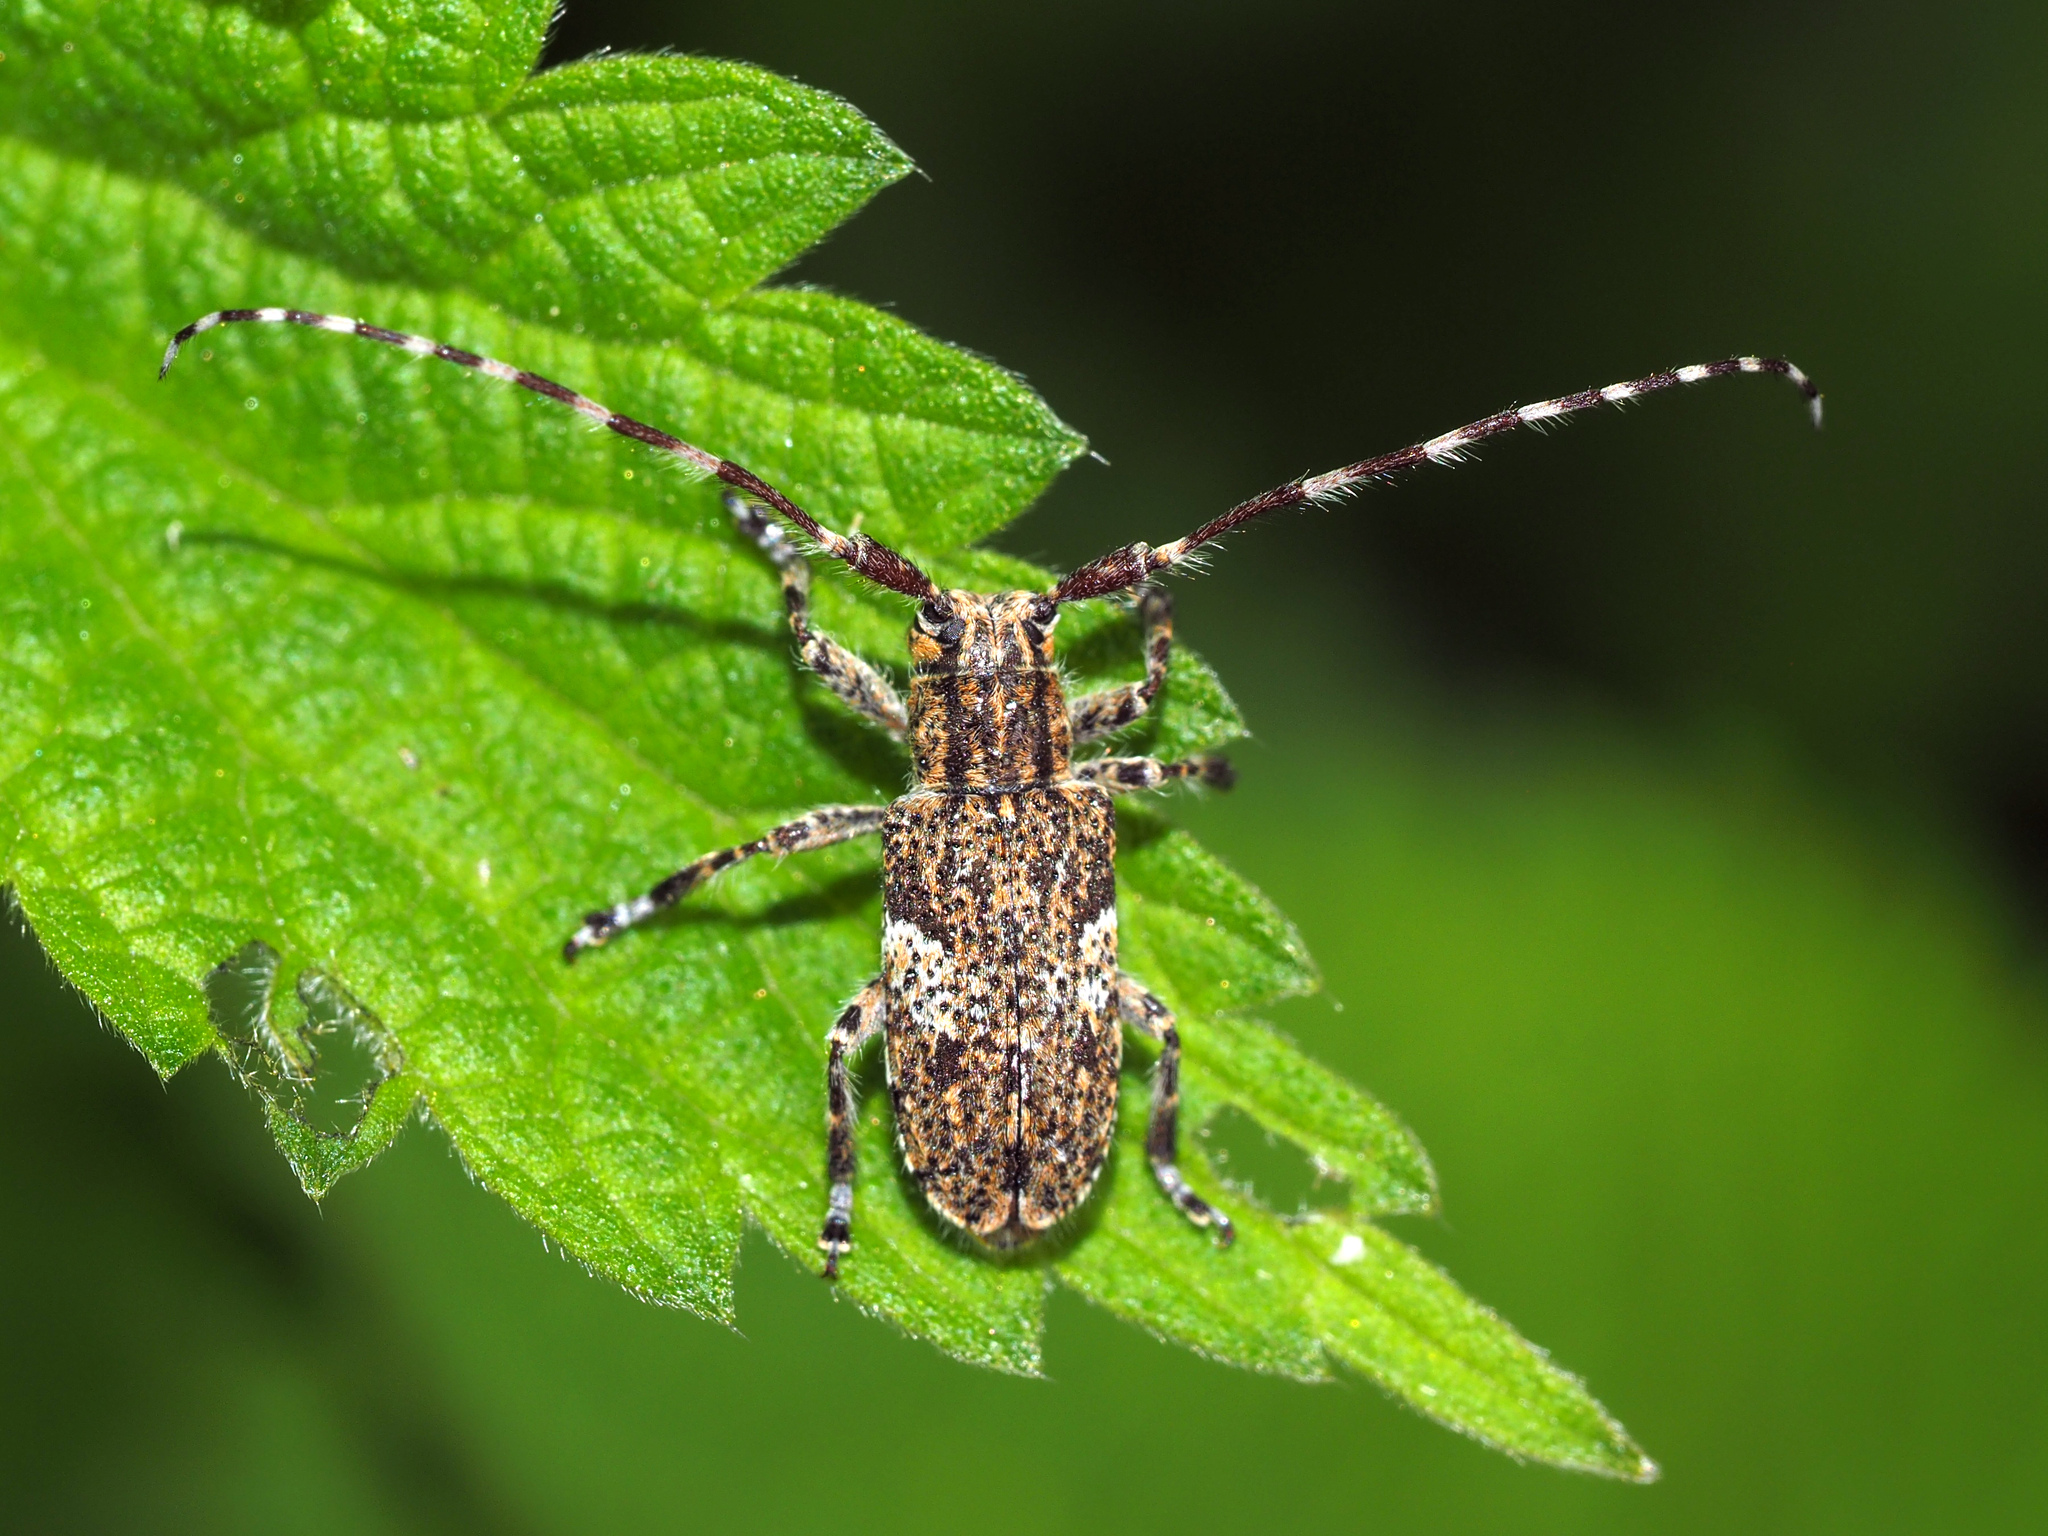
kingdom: Animalia
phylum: Arthropoda
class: Insecta
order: Coleoptera
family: Cerambycidae
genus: Mesosa
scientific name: Mesosa nebulosa
